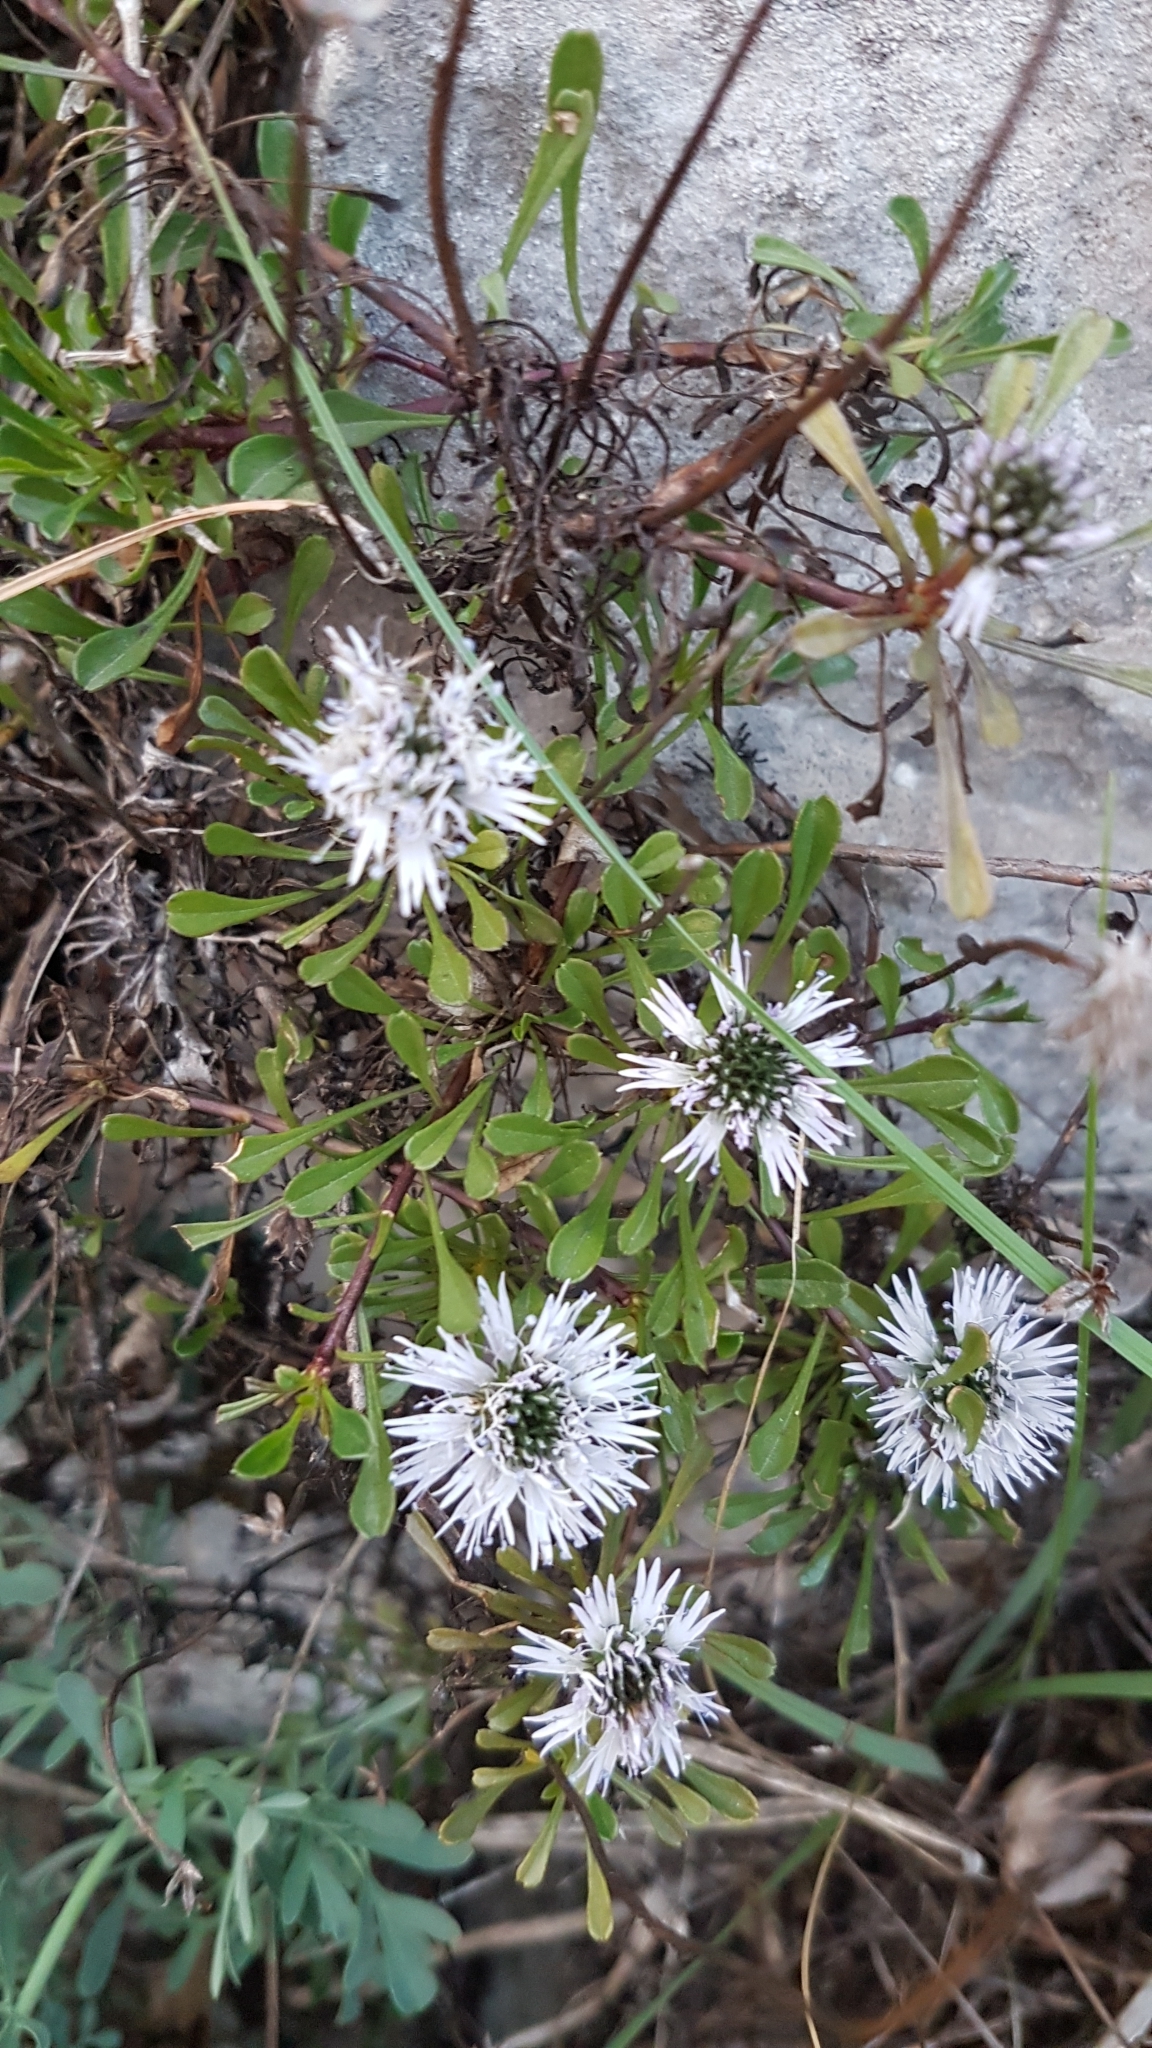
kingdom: Plantae
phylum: Tracheophyta
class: Magnoliopsida
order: Lamiales
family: Plantaginaceae
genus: Globularia
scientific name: Globularia cordifolia
